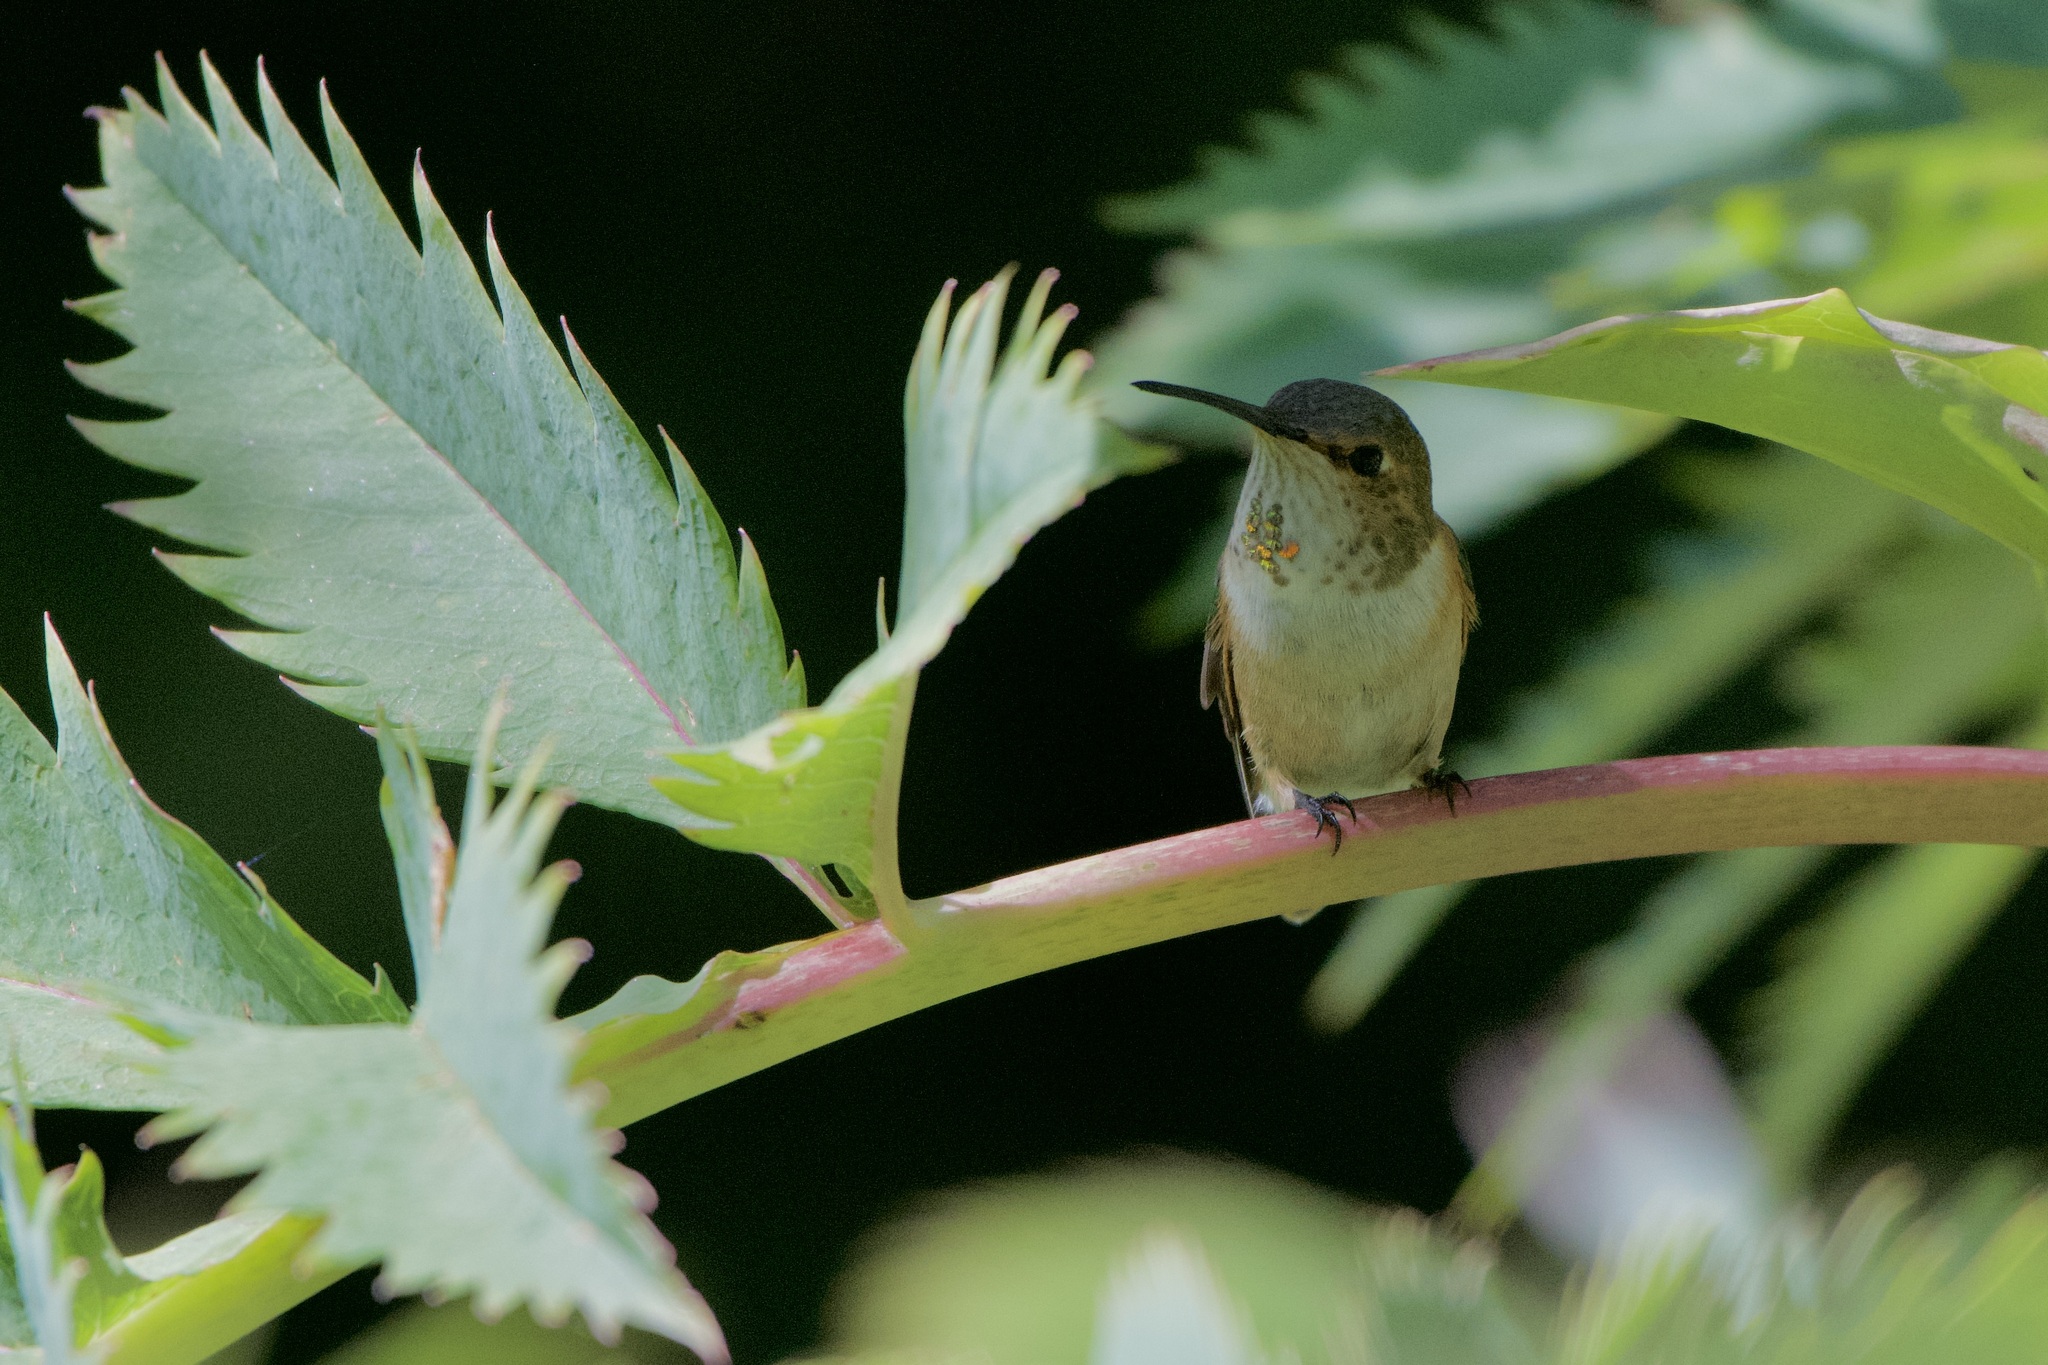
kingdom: Animalia
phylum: Chordata
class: Aves
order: Apodiformes
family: Trochilidae
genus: Selasphorus
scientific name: Selasphorus
